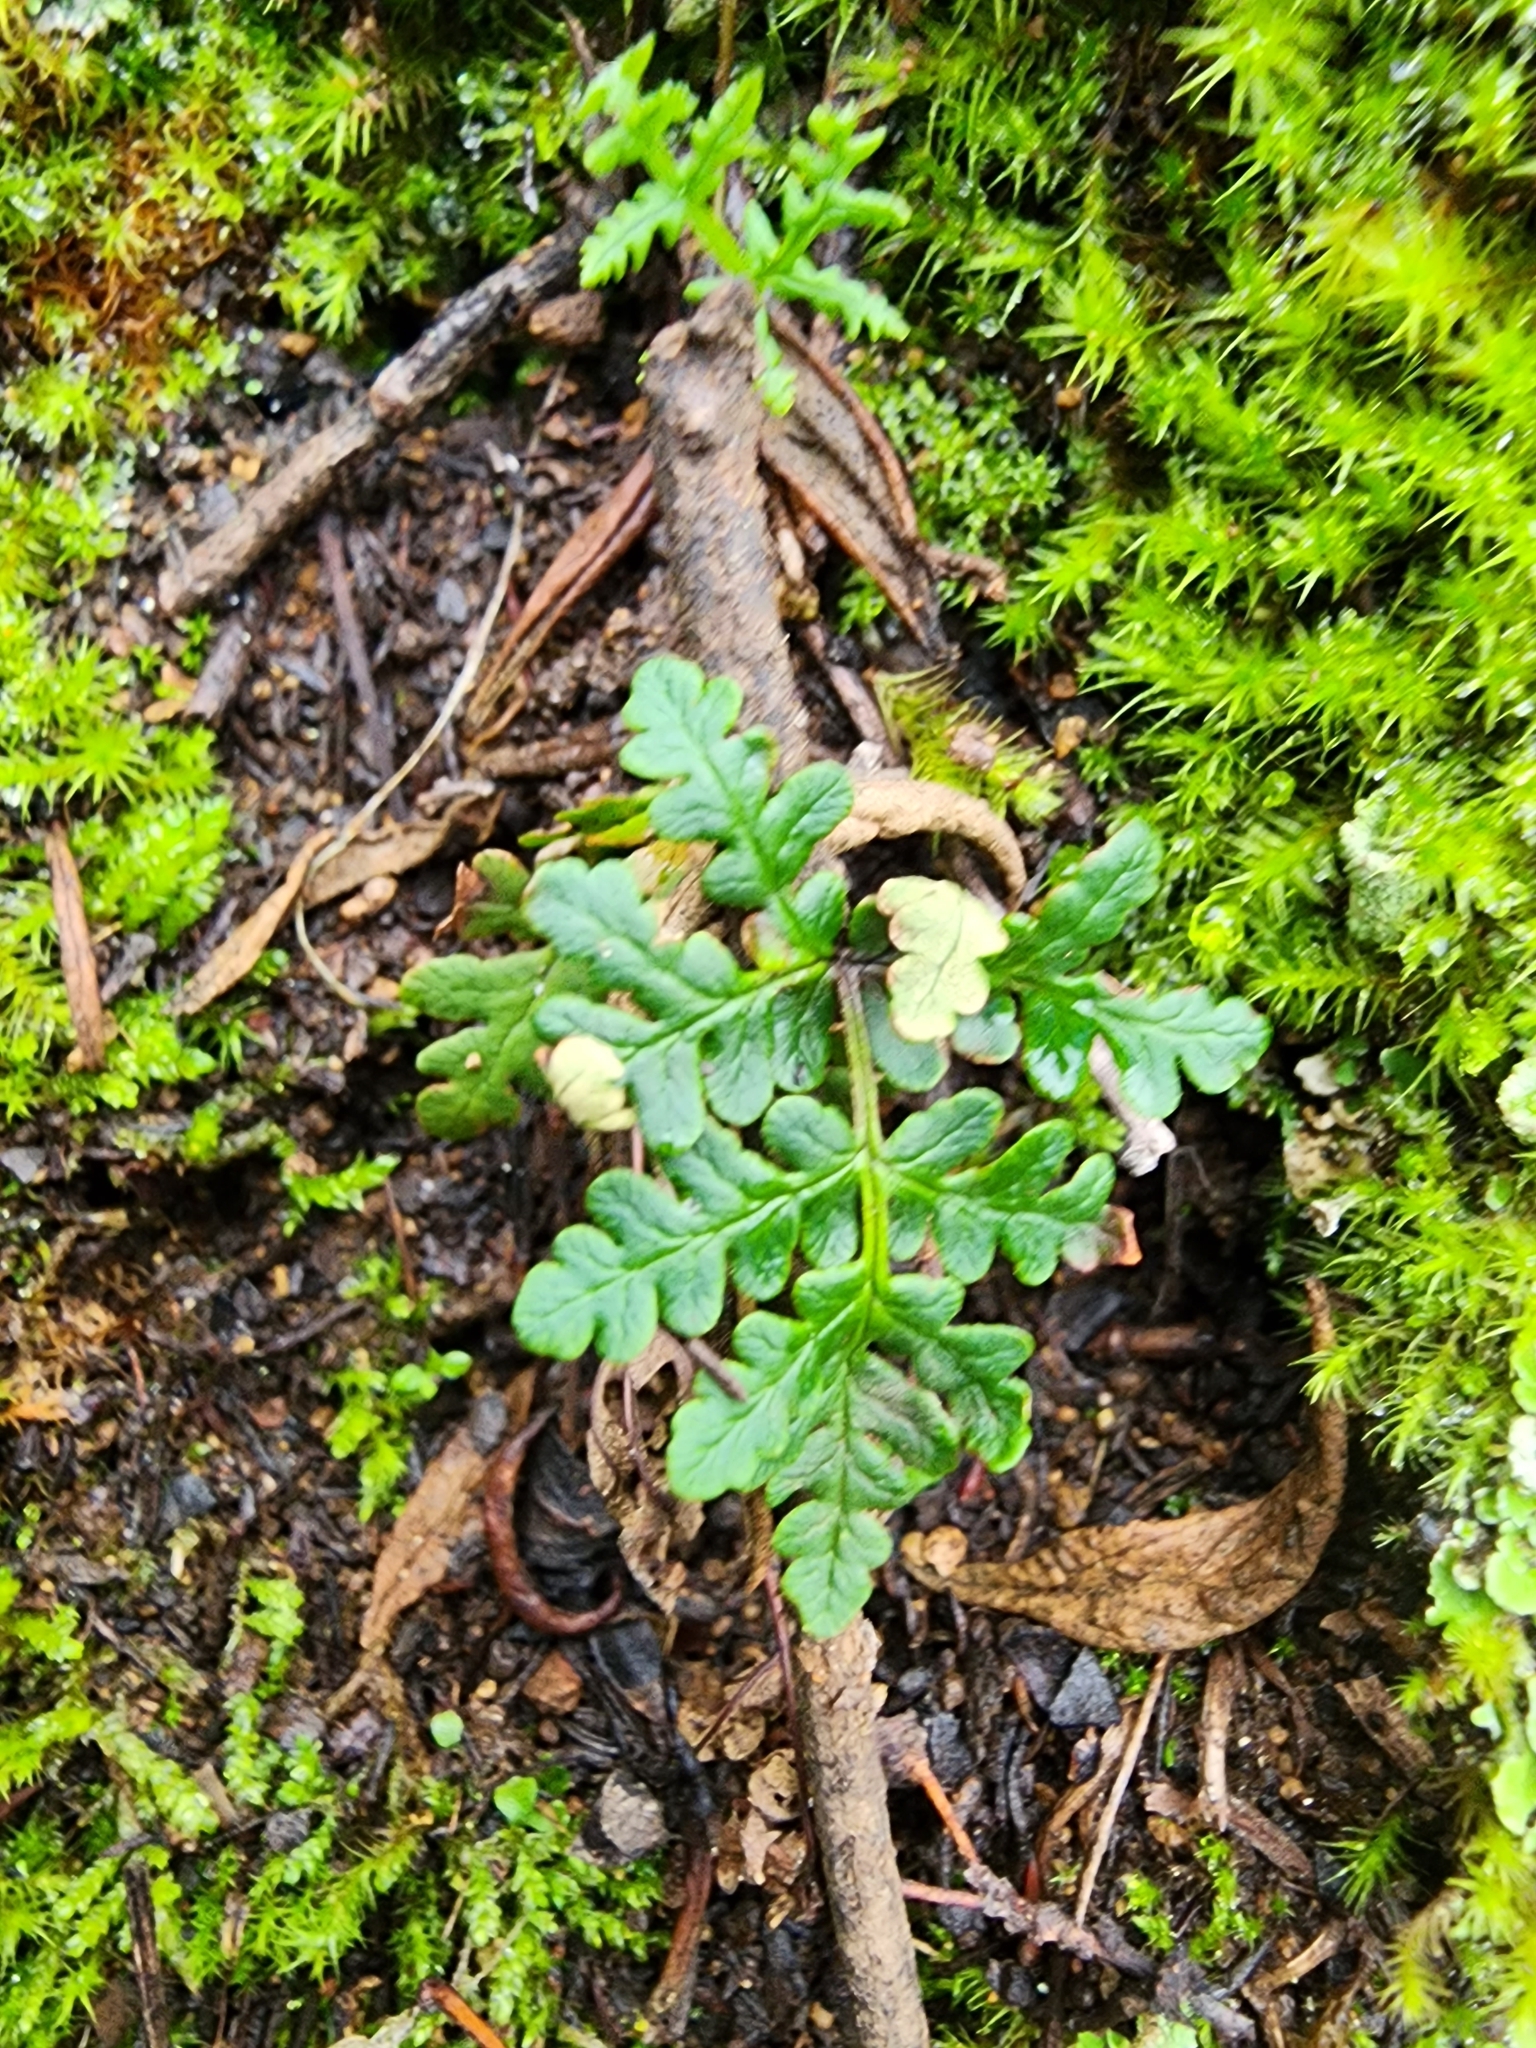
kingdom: Plantae
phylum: Tracheophyta
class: Polypodiopsida
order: Polypodiales
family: Pteridaceae
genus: Pentagramma
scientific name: Pentagramma triangularis
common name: Gold fern
